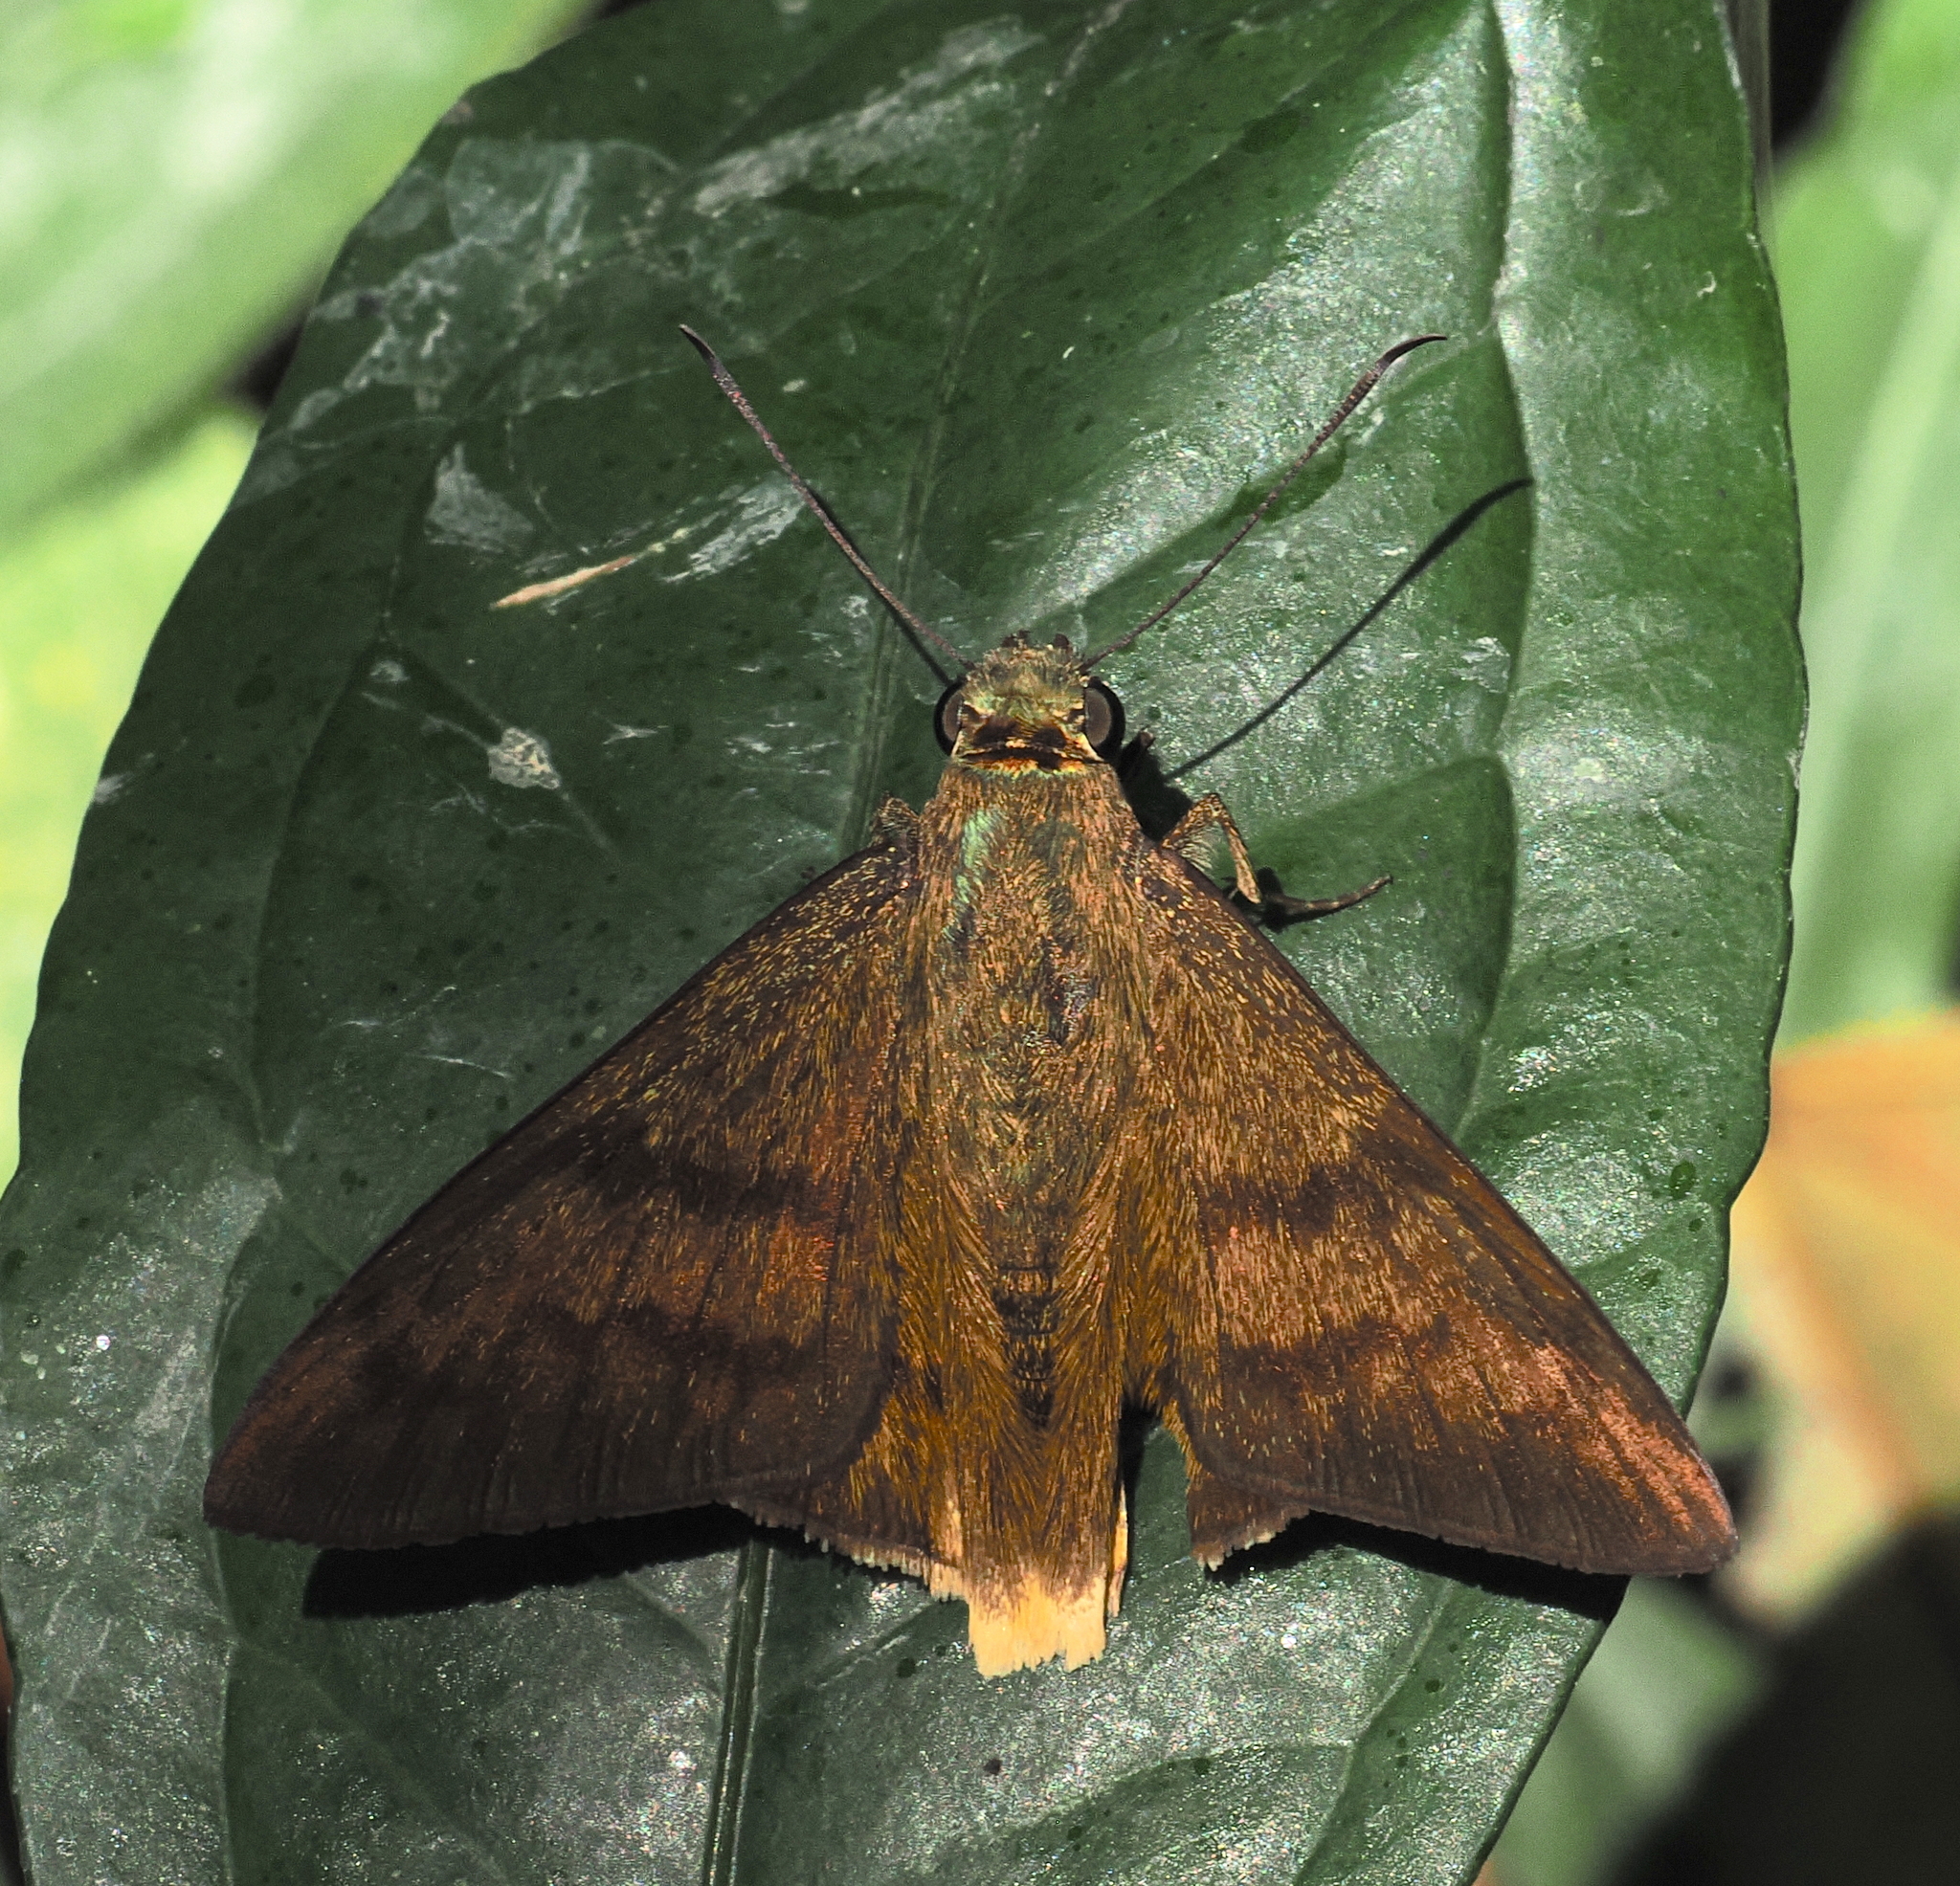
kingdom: Animalia
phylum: Arthropoda
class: Insecta
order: Lepidoptera
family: Hesperiidae
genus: Astraptes
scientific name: Astraptes anaphus
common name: Yellow-tipped flasher
